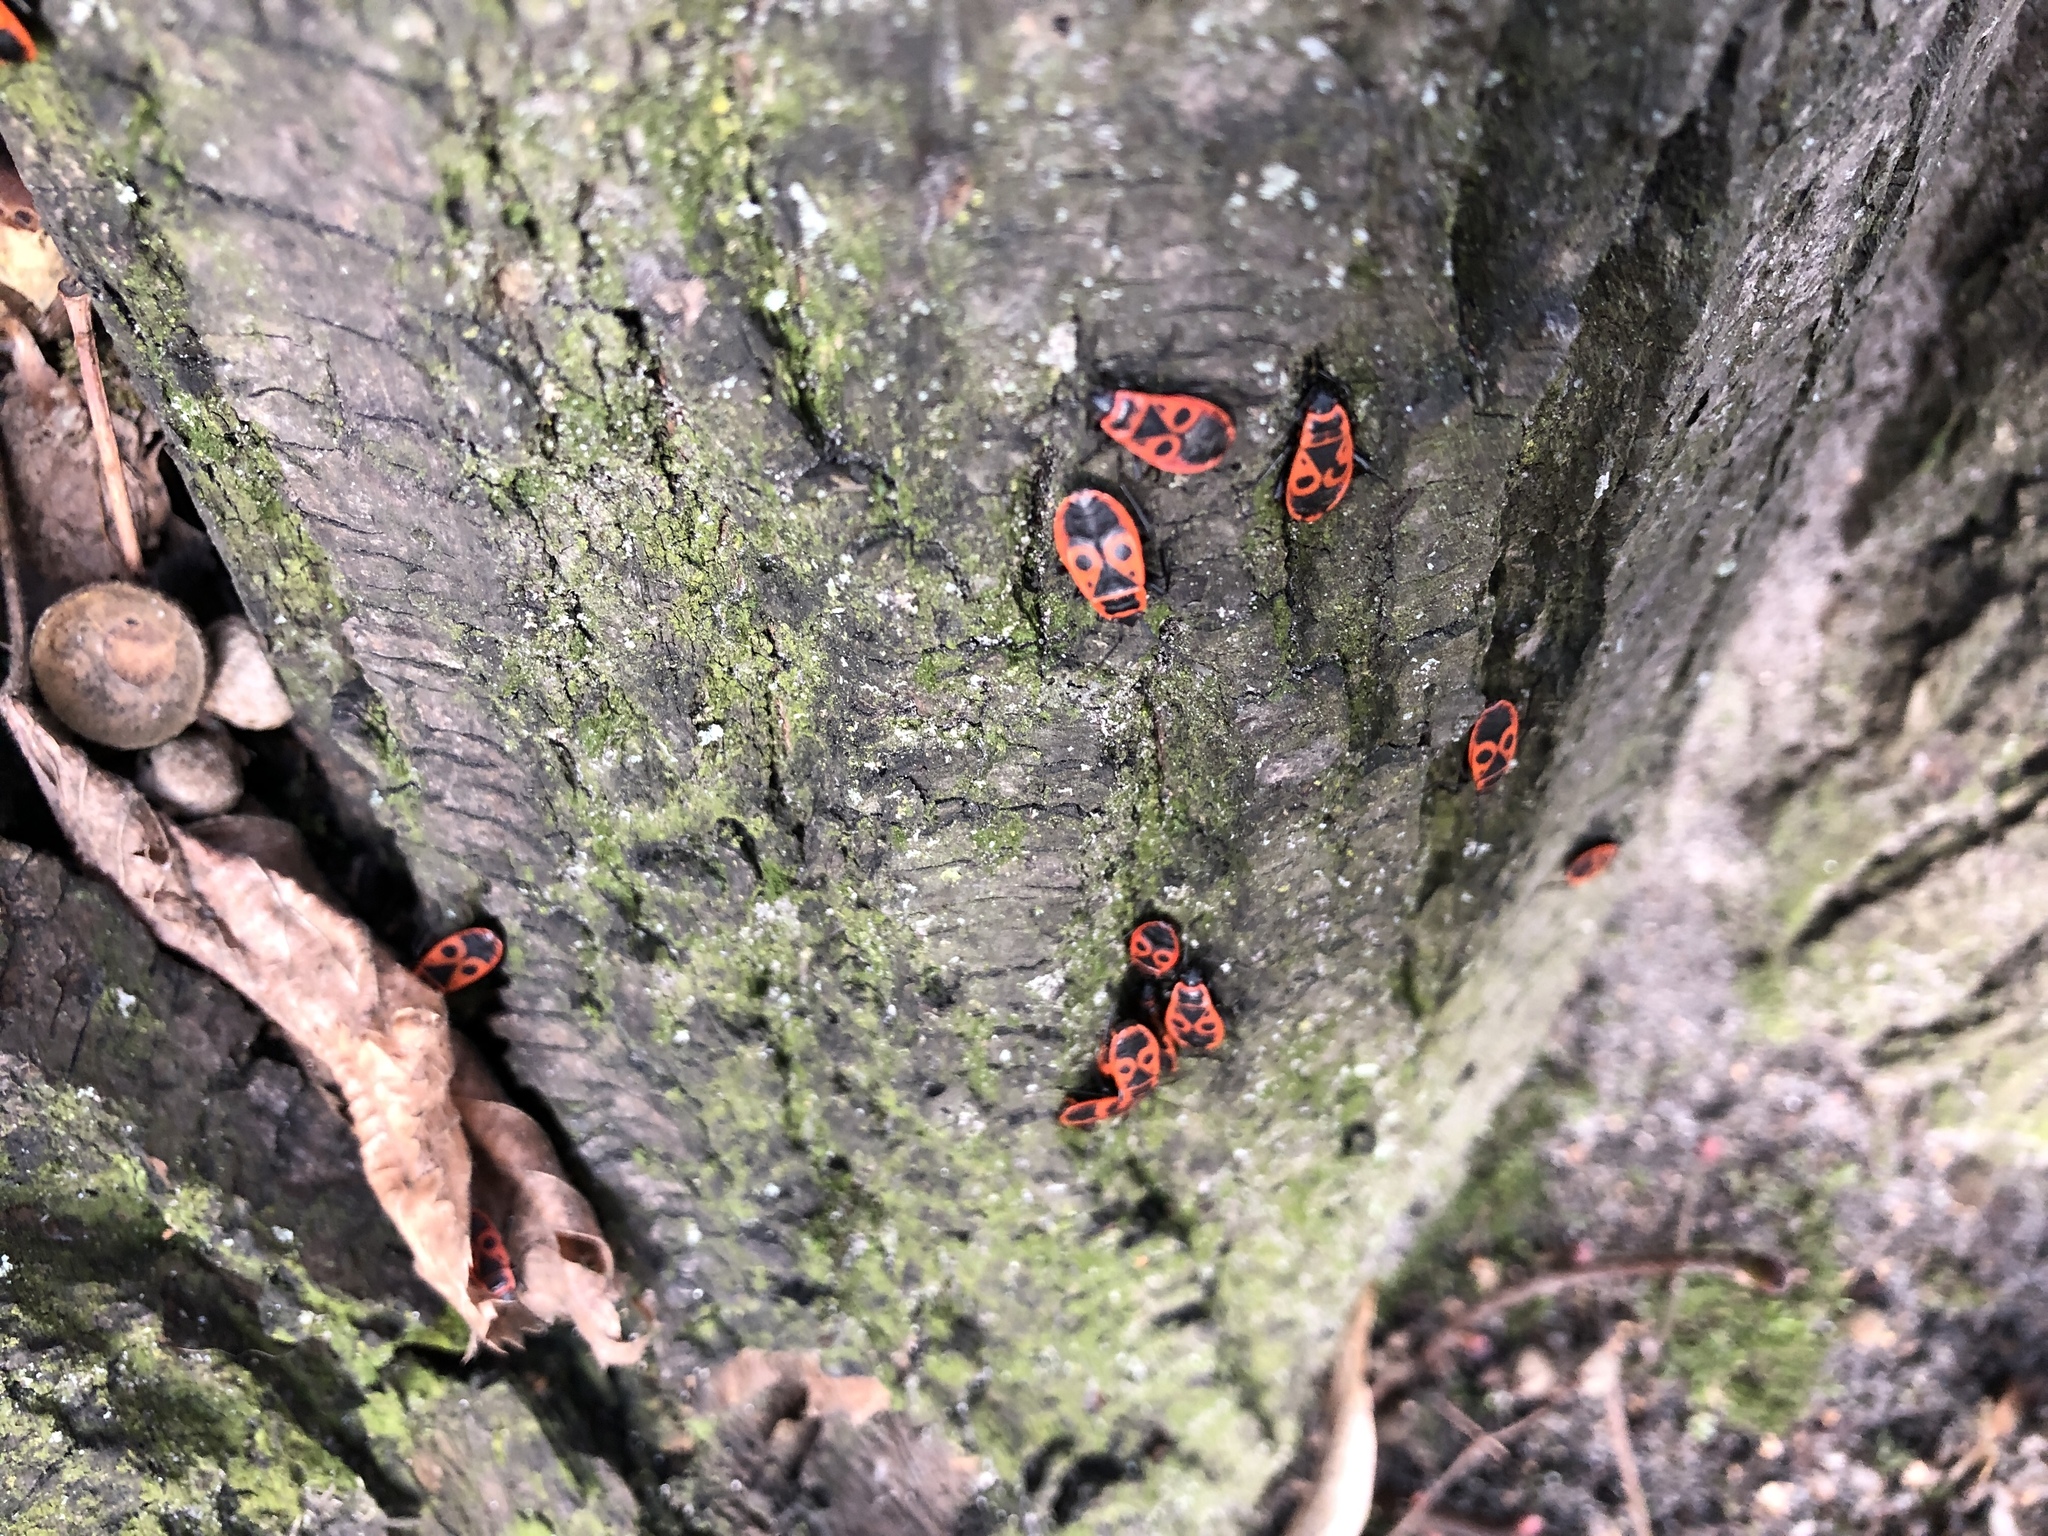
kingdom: Animalia
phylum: Arthropoda
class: Insecta
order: Hemiptera
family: Pyrrhocoridae
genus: Pyrrhocoris
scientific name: Pyrrhocoris apterus
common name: Firebug
